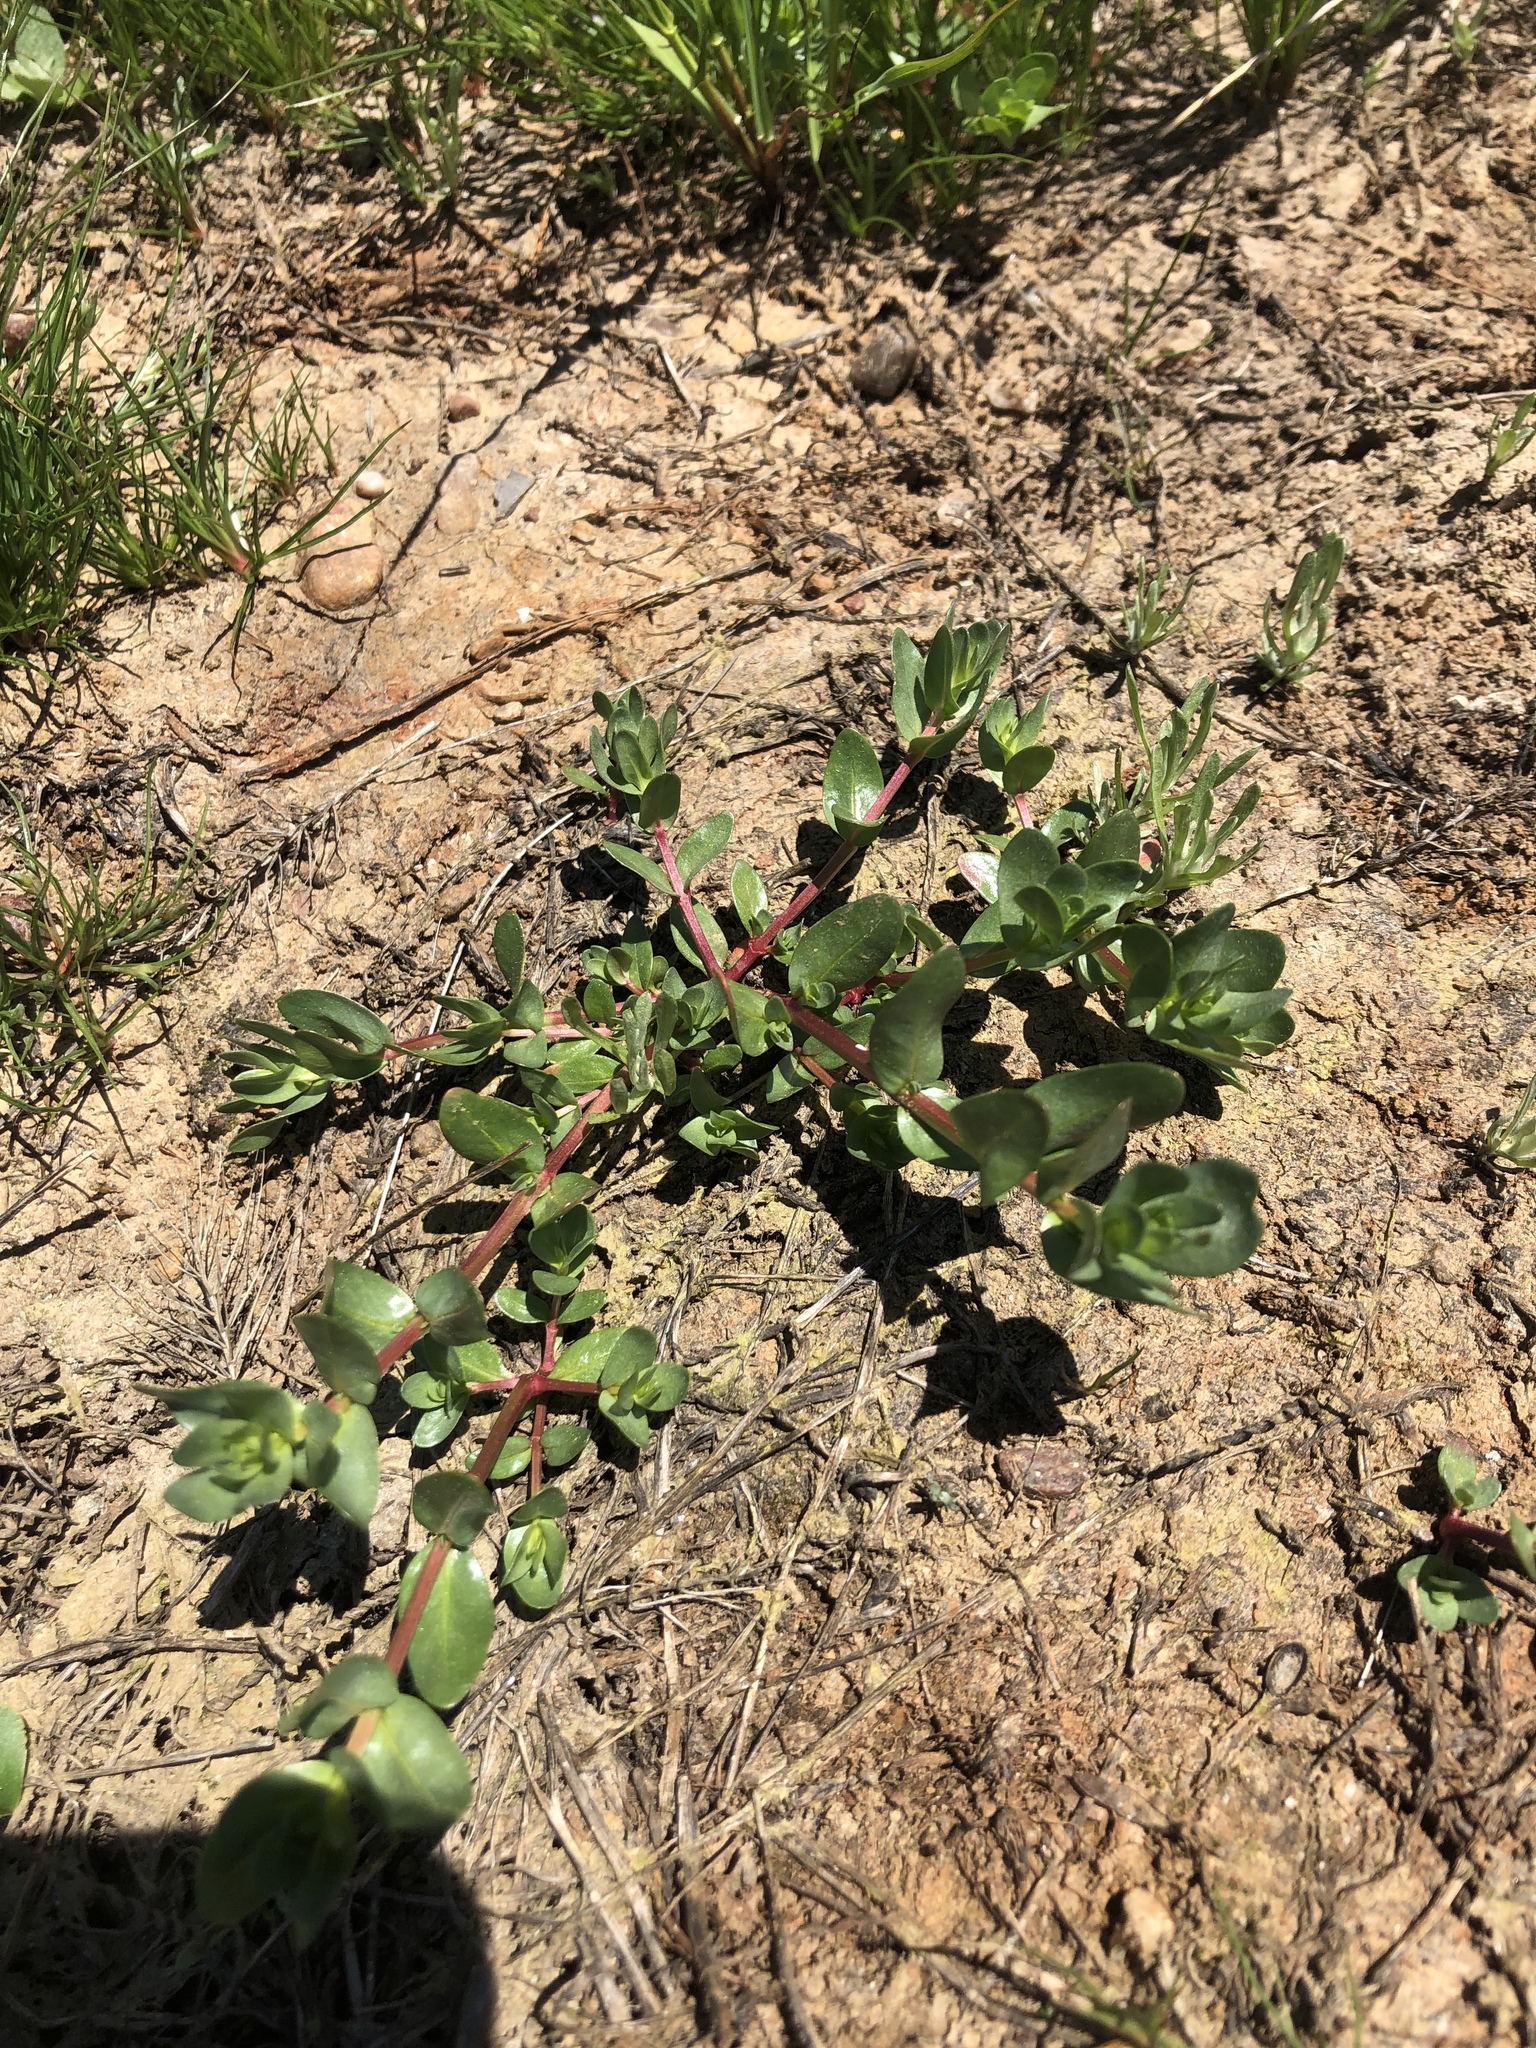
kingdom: Plantae
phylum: Tracheophyta
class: Magnoliopsida
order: Myrtales
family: Lythraceae
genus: Lythrum
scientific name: Lythrum hyssopifolia
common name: Grass-poly
